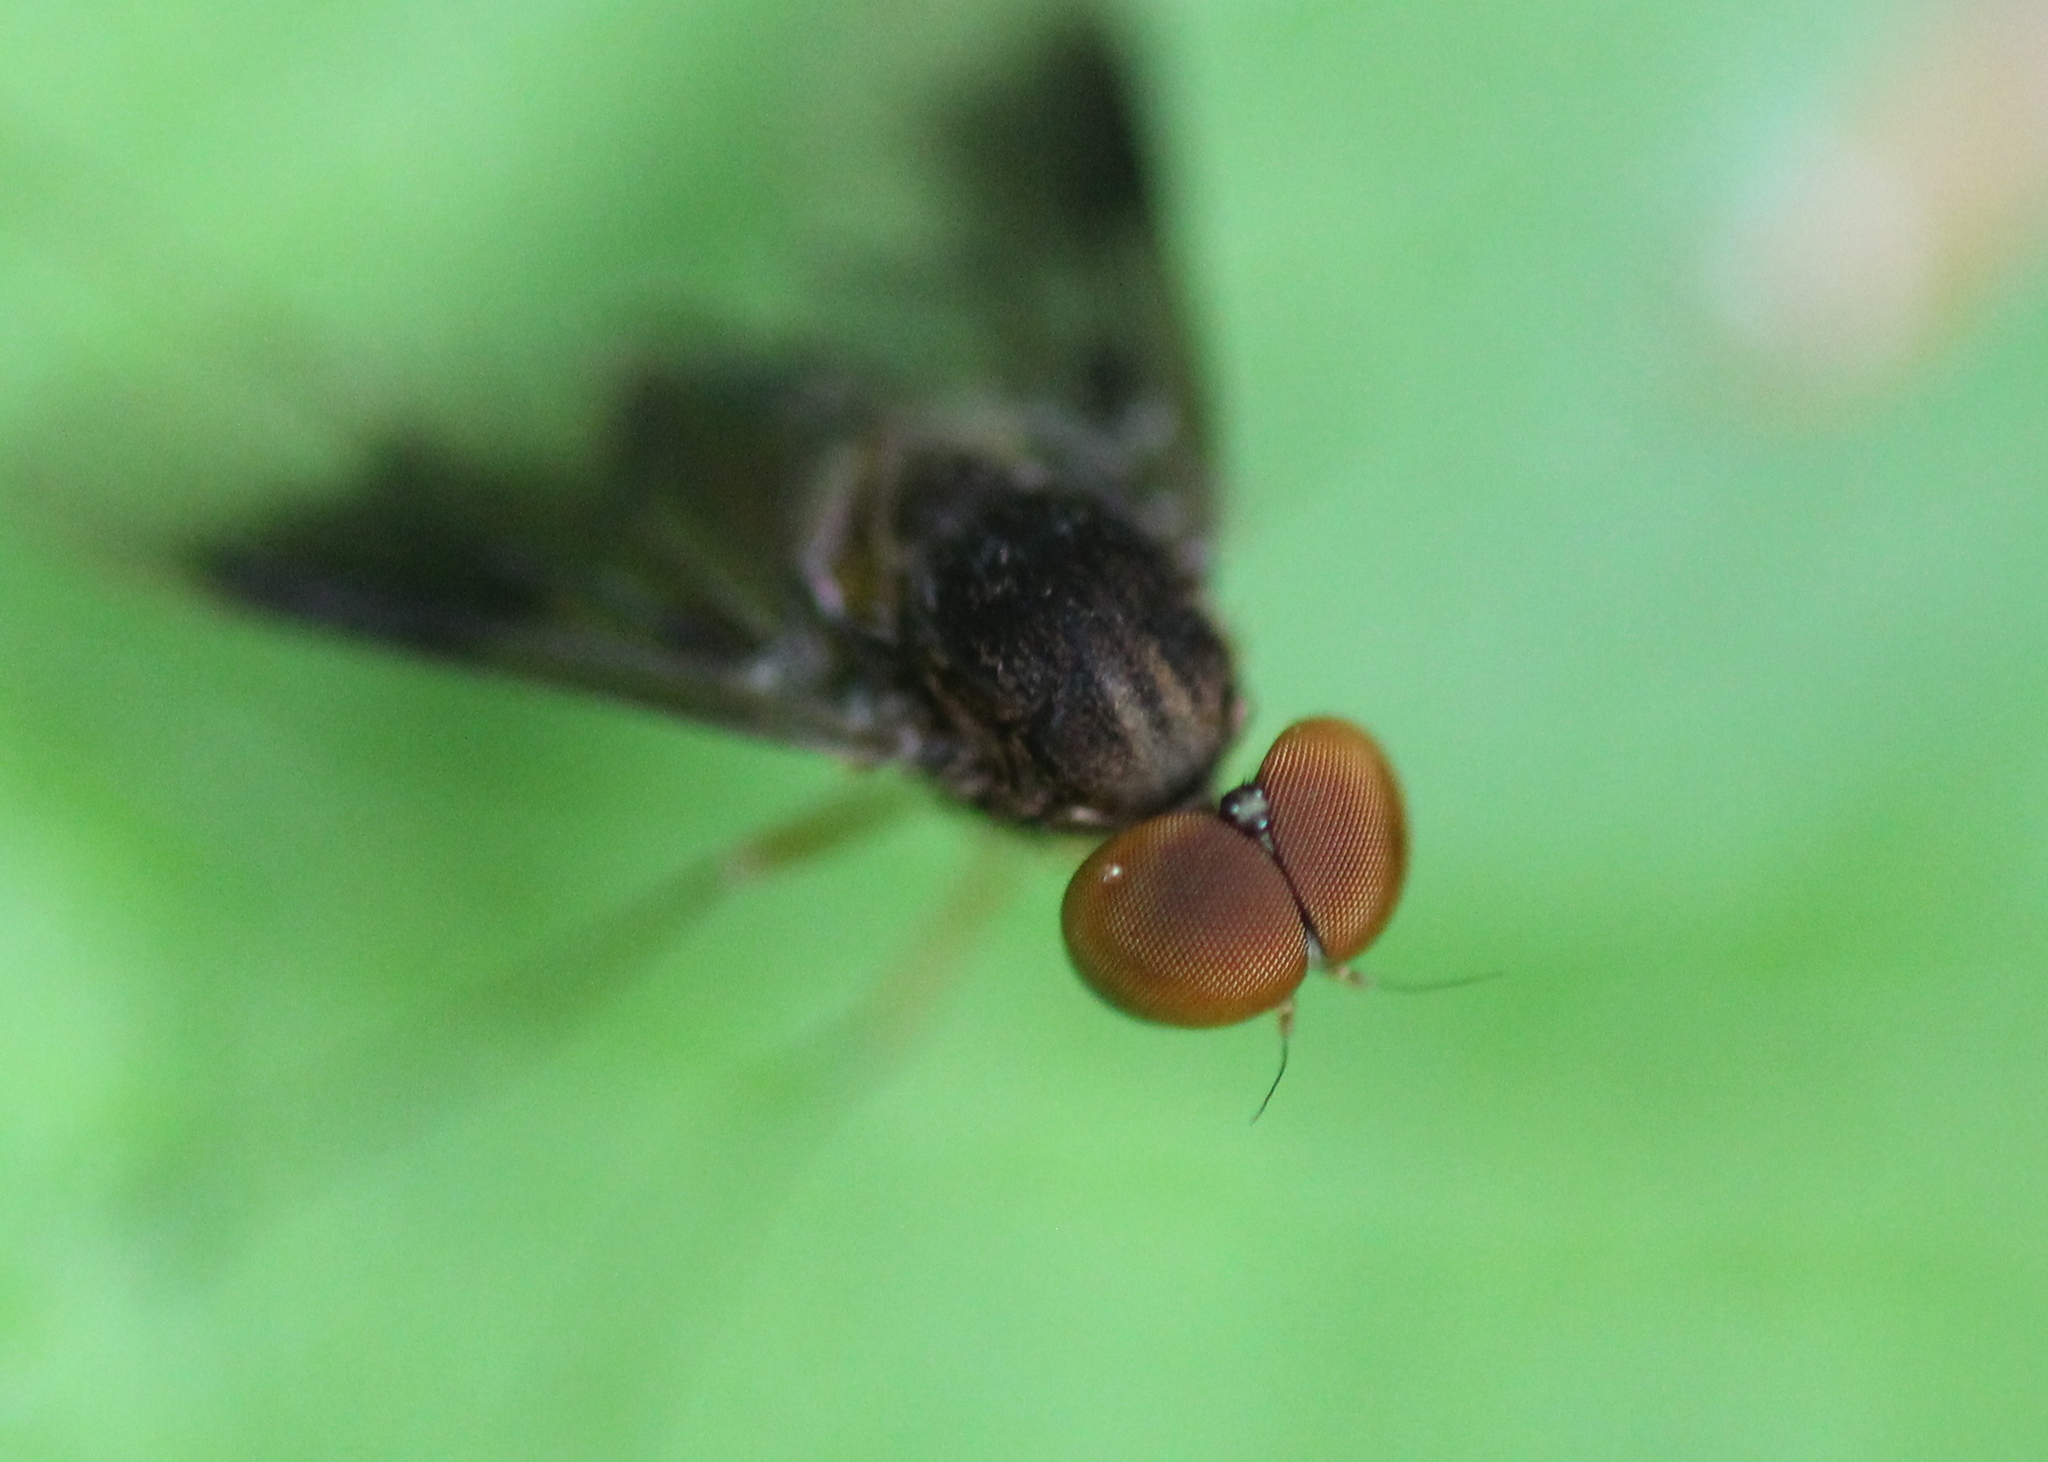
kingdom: Animalia
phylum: Arthropoda
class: Insecta
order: Diptera
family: Rhagionidae
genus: Chrysopilus
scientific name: Chrysopilus quadratus
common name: Quadrate snipe fly
